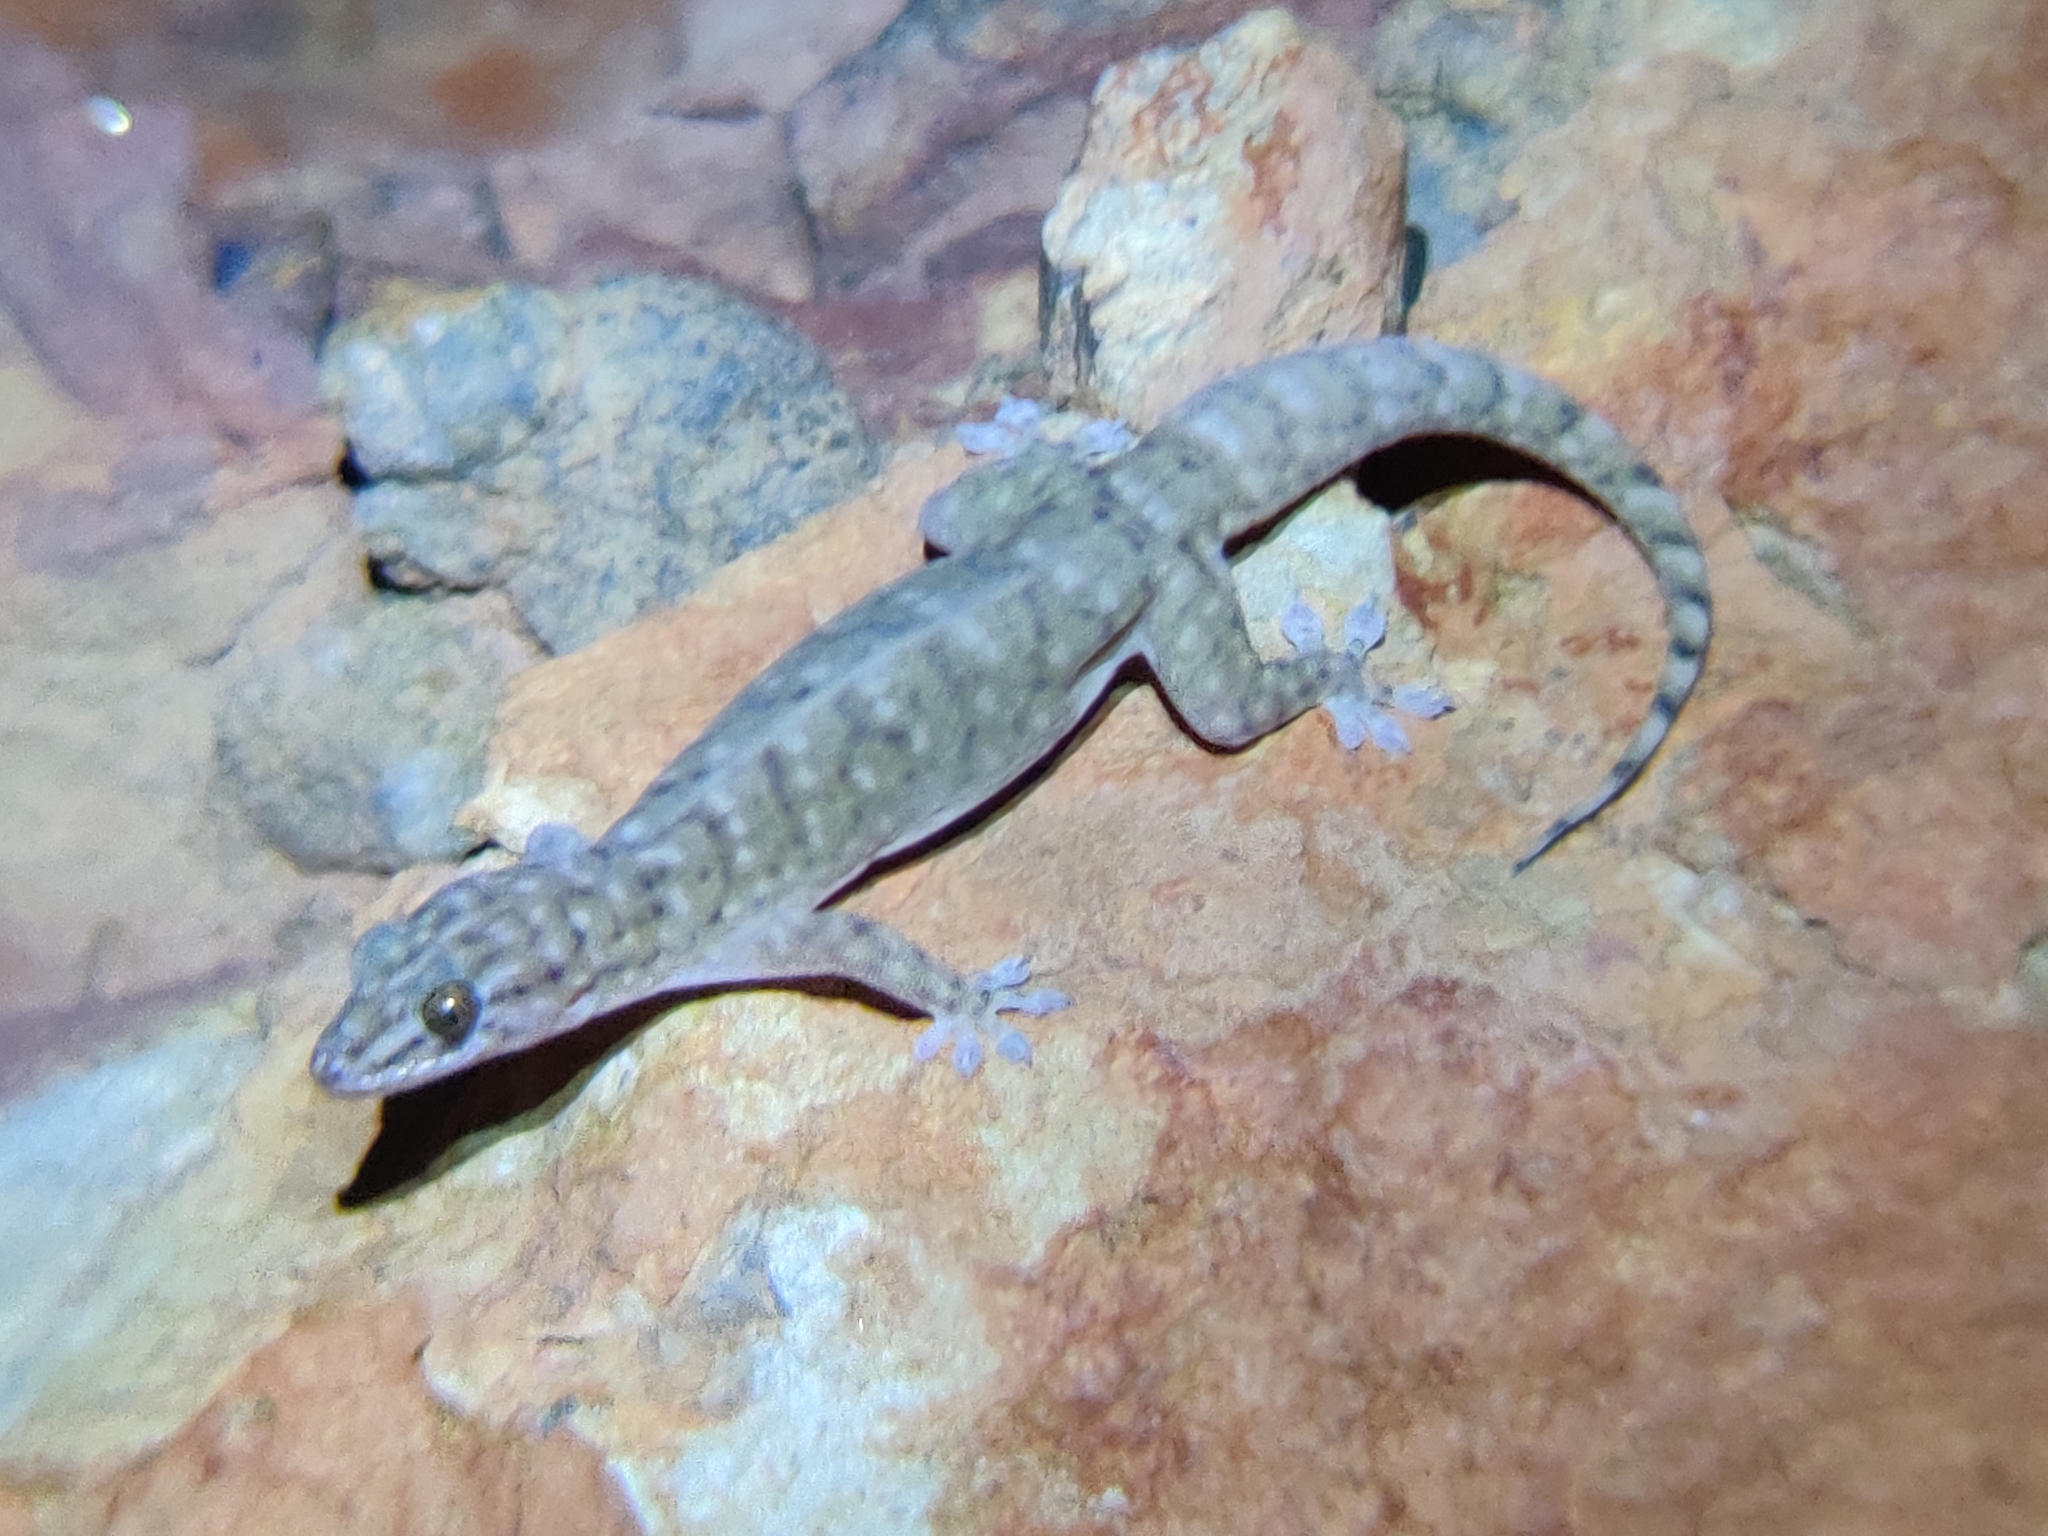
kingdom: Animalia
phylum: Chordata
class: Squamata
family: Gekkonidae
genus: Gehyra
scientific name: Gehyra robusta
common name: Robust dtella
